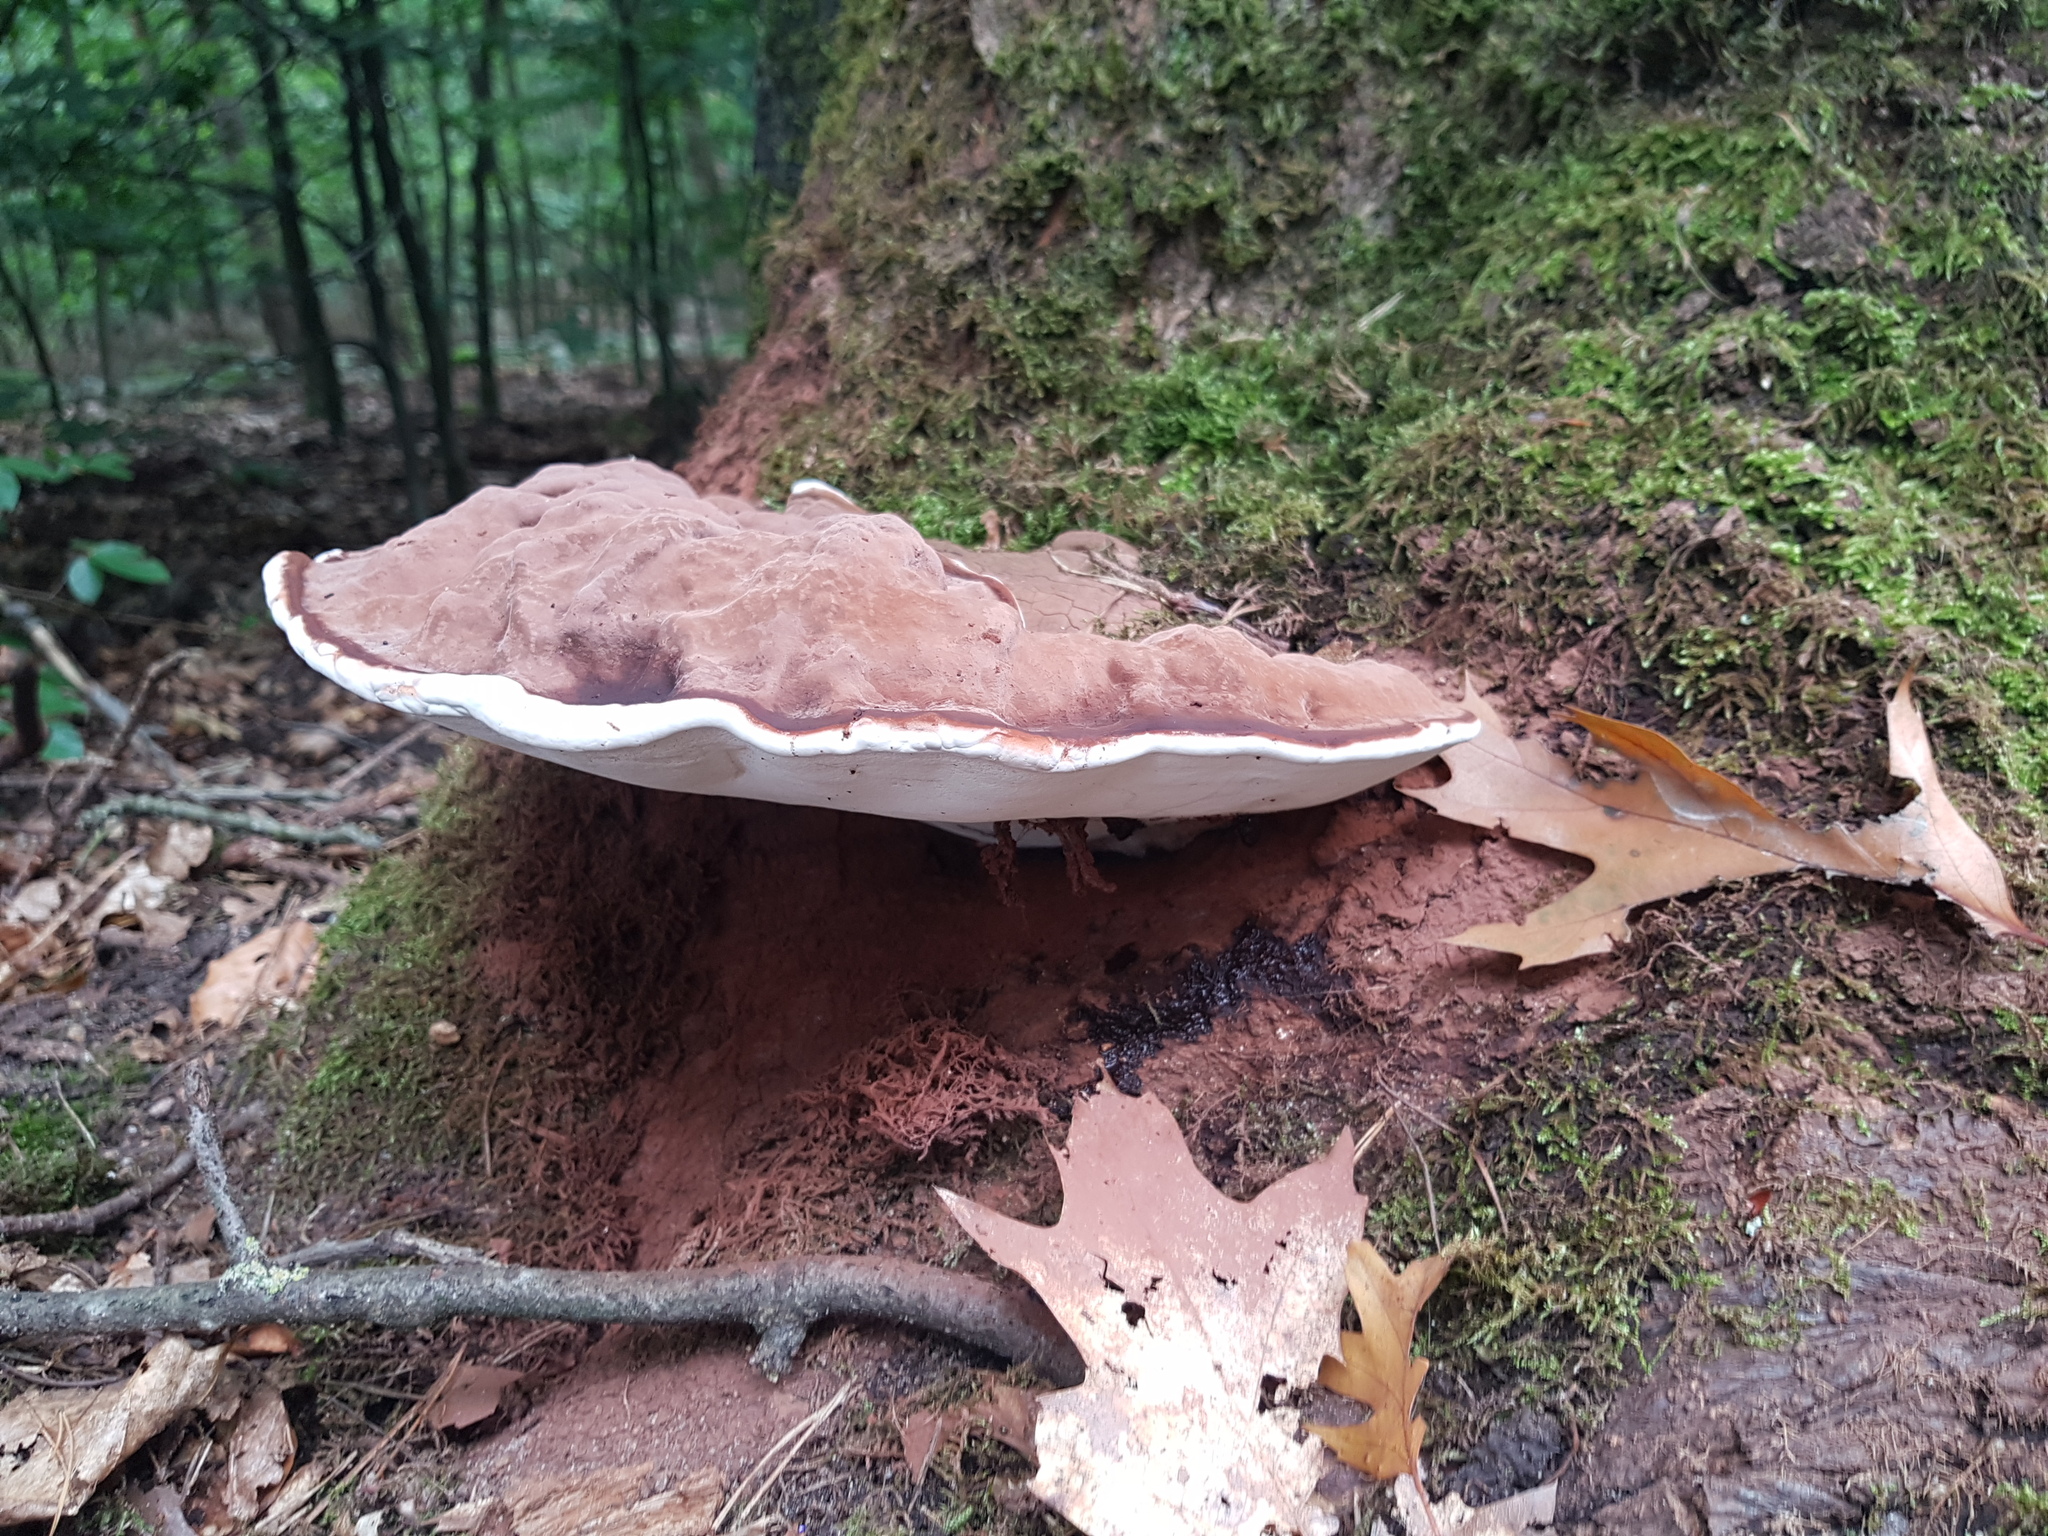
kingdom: Fungi
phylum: Basidiomycota
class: Agaricomycetes
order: Polyporales
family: Polyporaceae
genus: Ganoderma
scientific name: Ganoderma applanatum
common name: Artist's bracket
